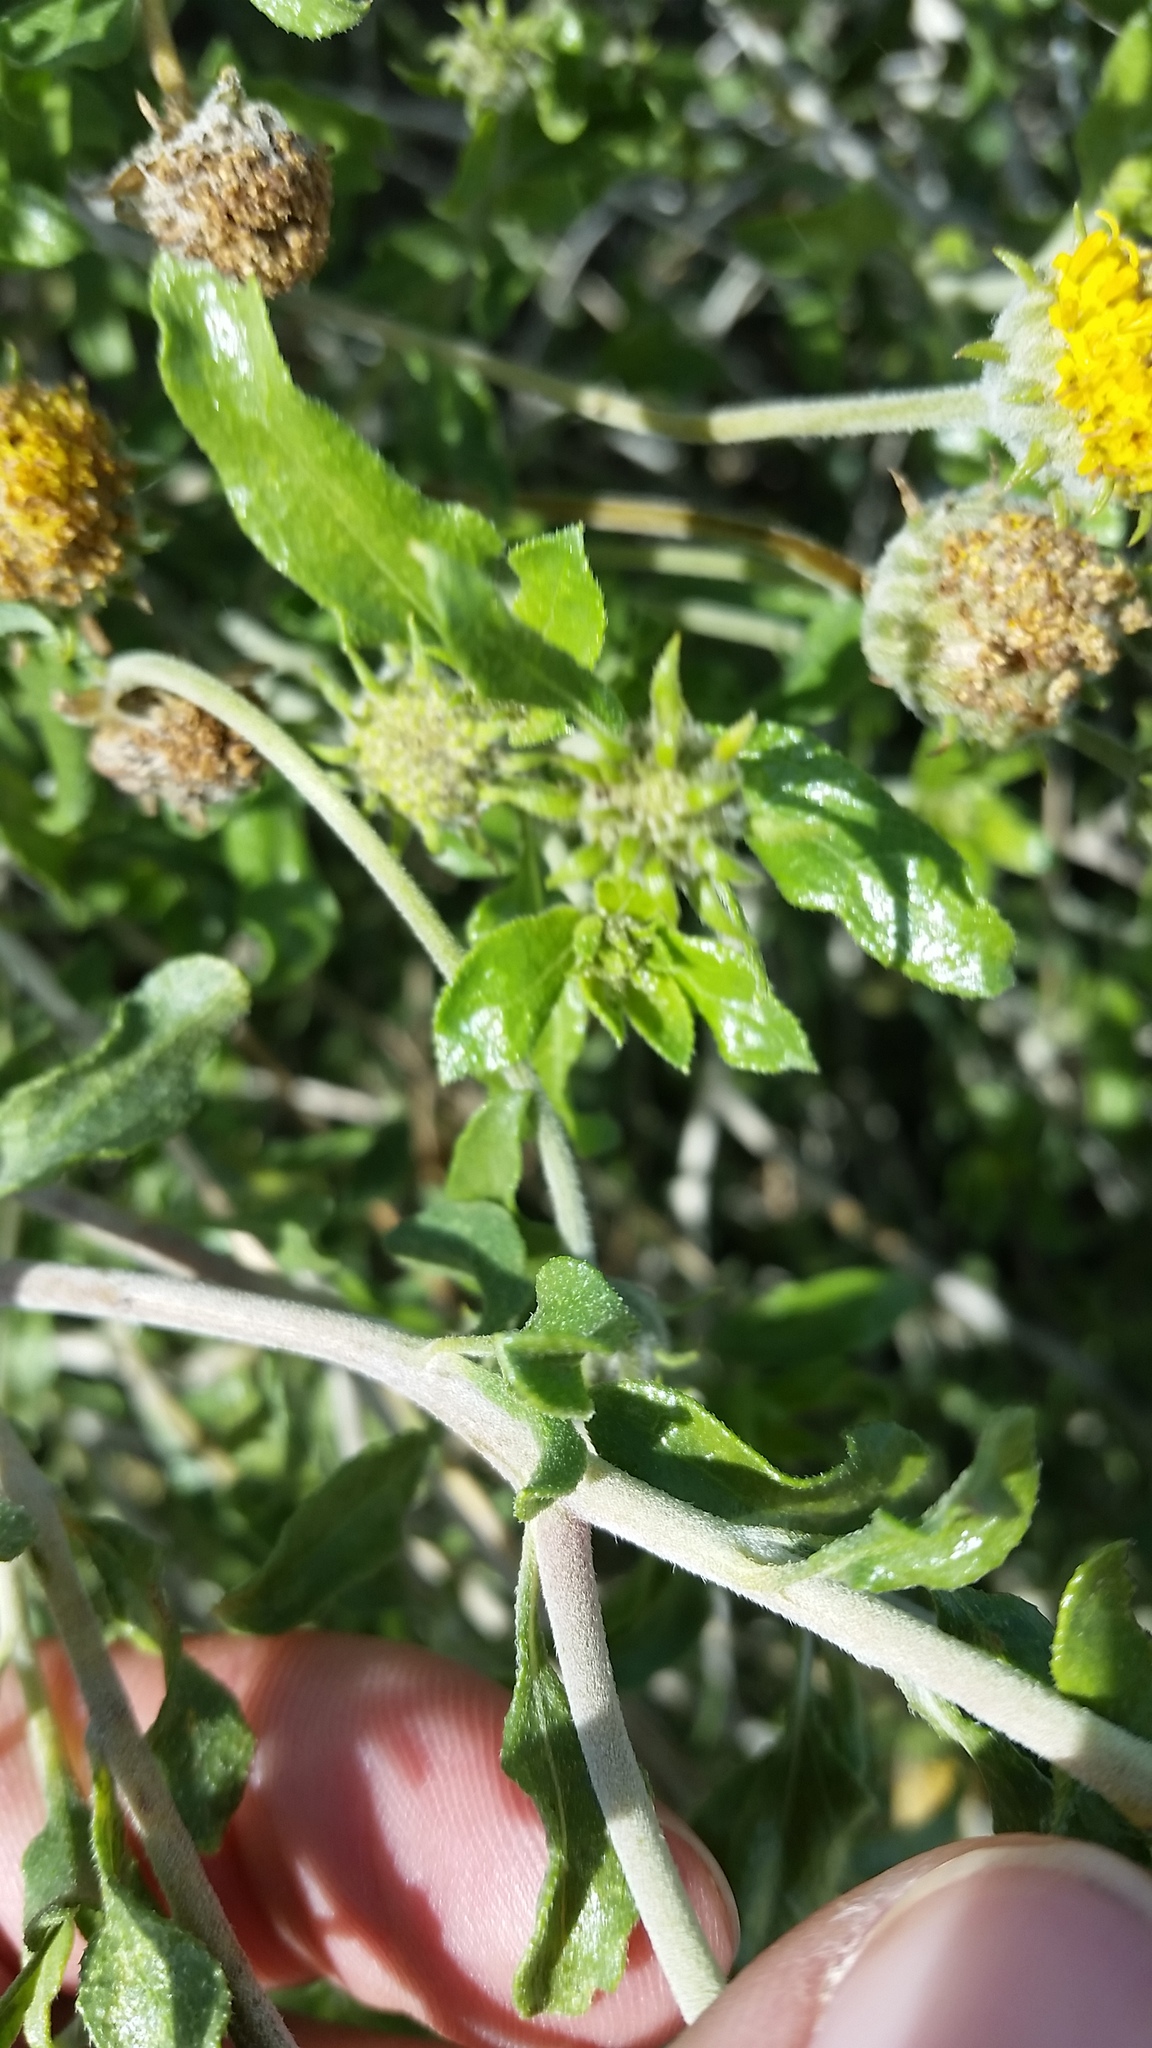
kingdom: Plantae
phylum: Tracheophyta
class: Magnoliopsida
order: Asterales
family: Asteraceae
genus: Encelia
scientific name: Encelia frutescens
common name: Bush encelia
